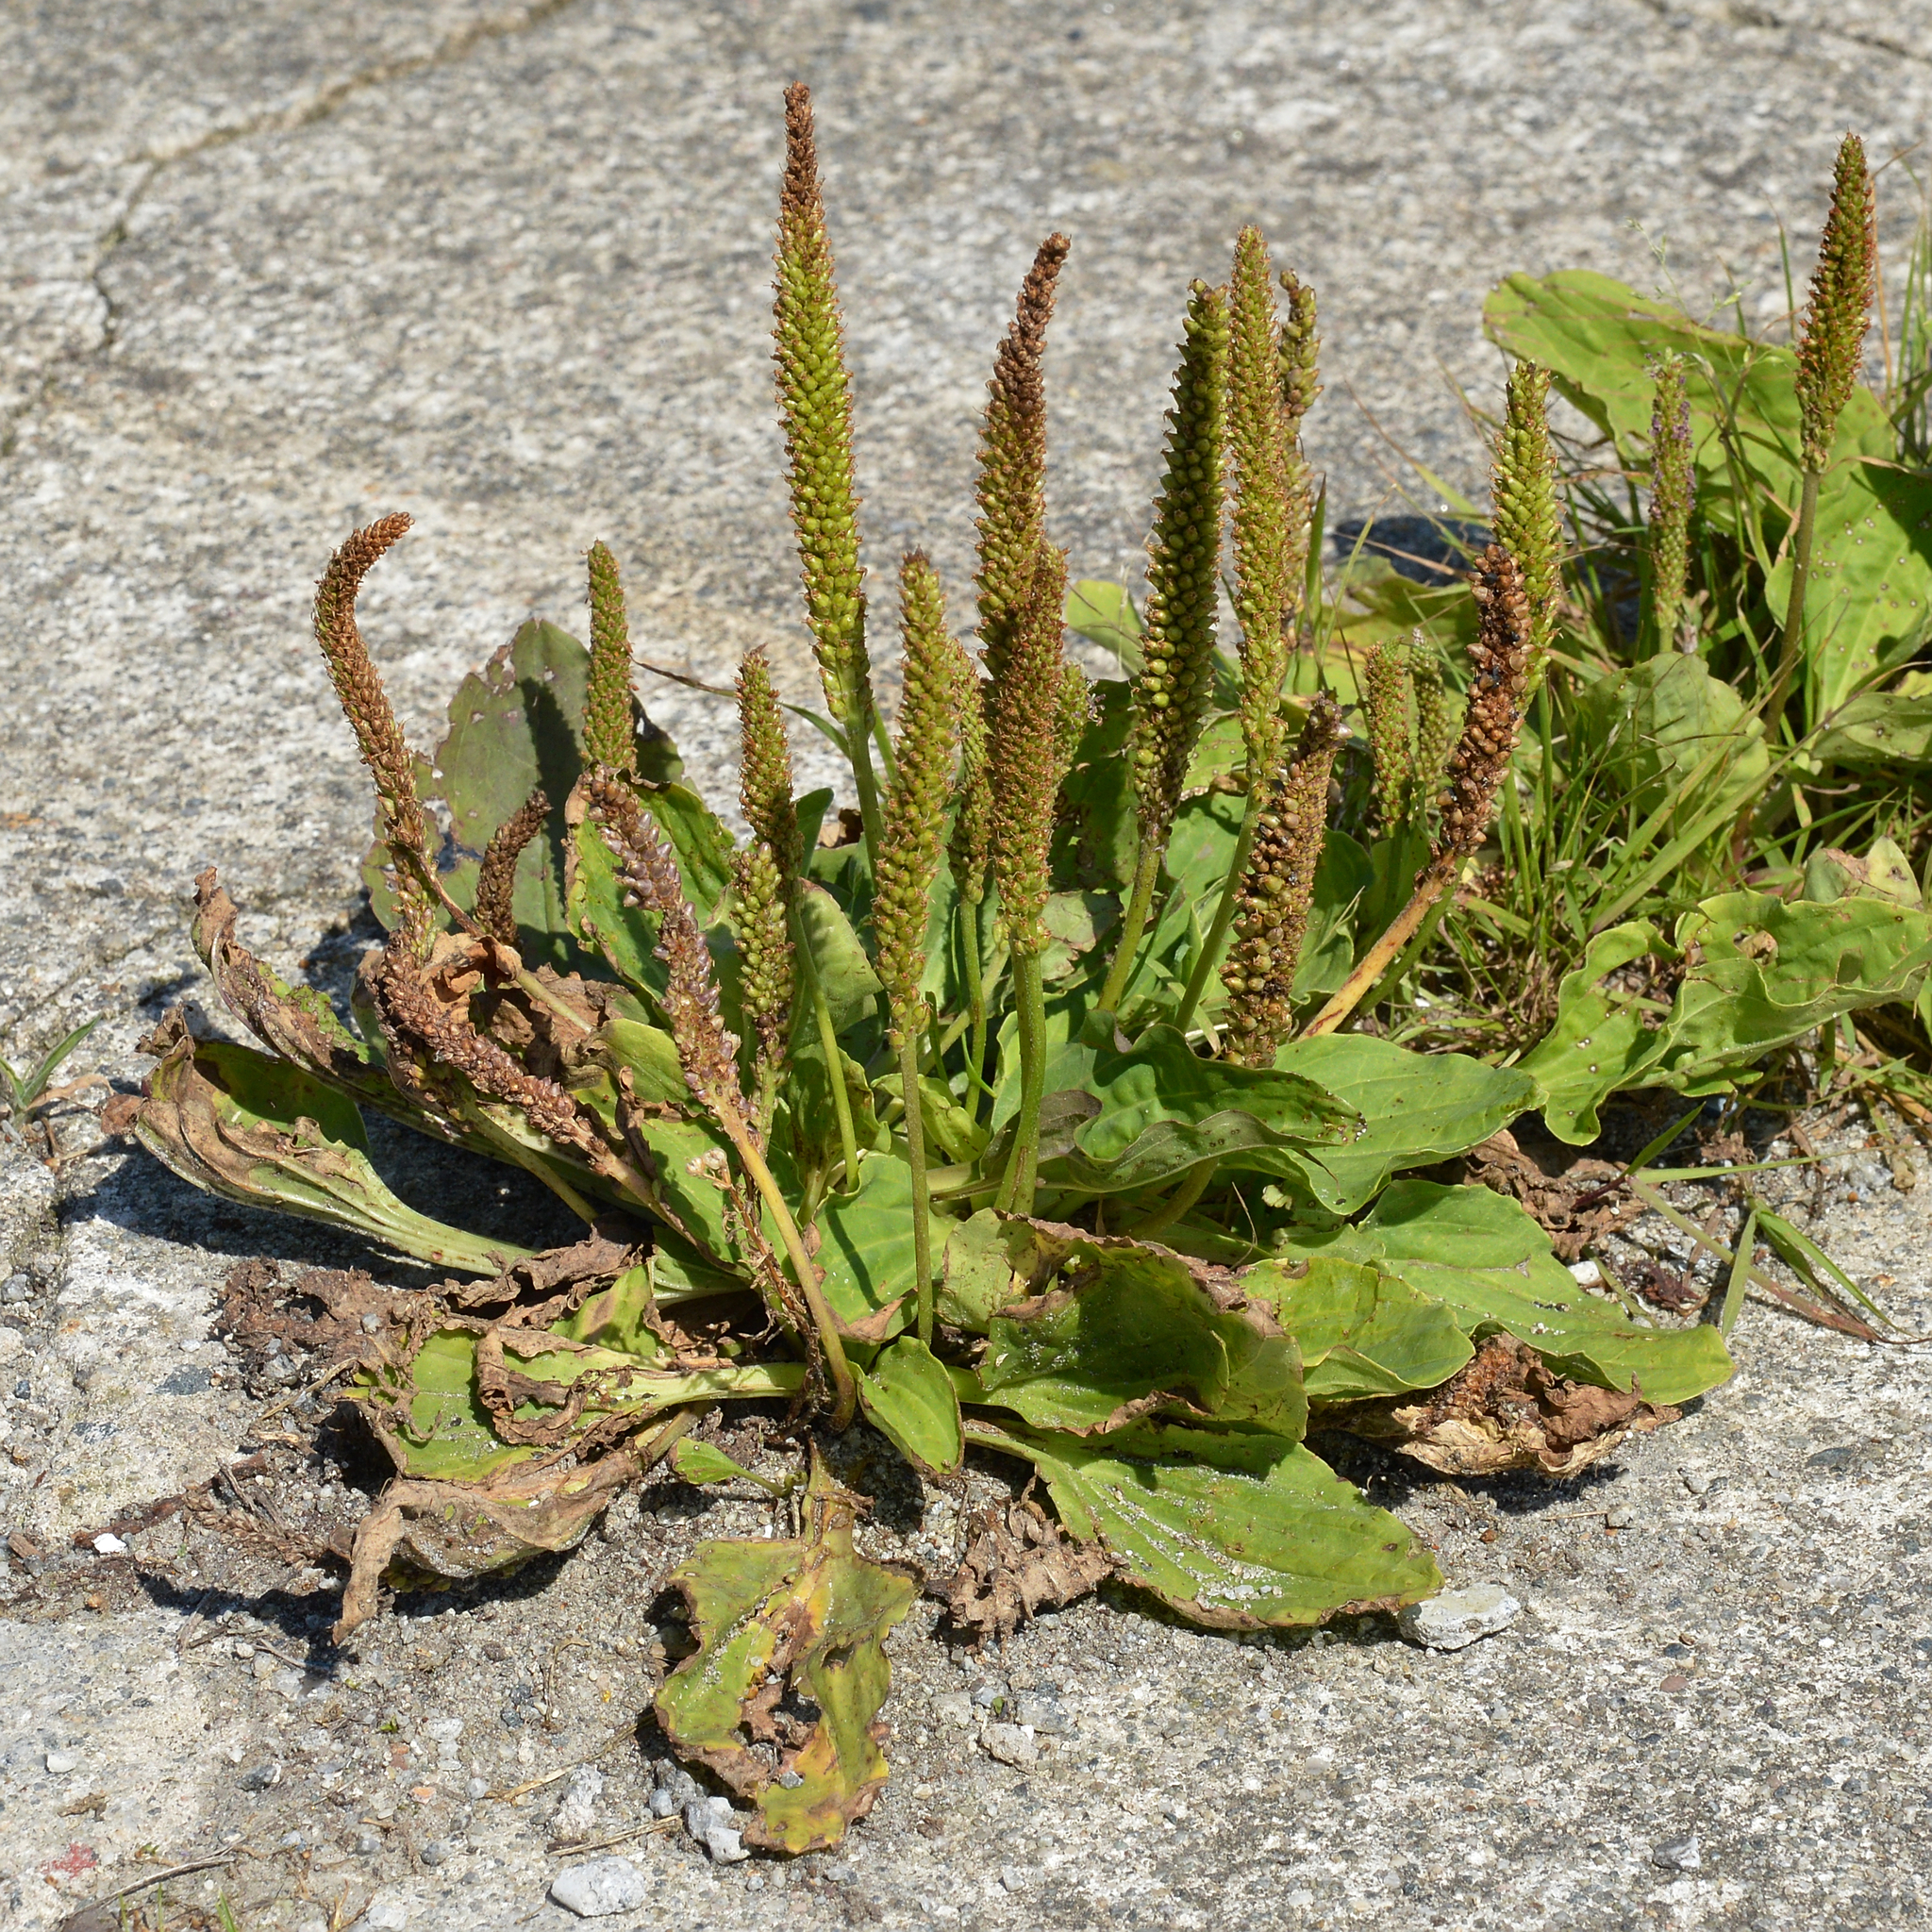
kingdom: Plantae
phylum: Tracheophyta
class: Magnoliopsida
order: Lamiales
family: Plantaginaceae
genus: Plantago
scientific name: Plantago major
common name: Common plantain
